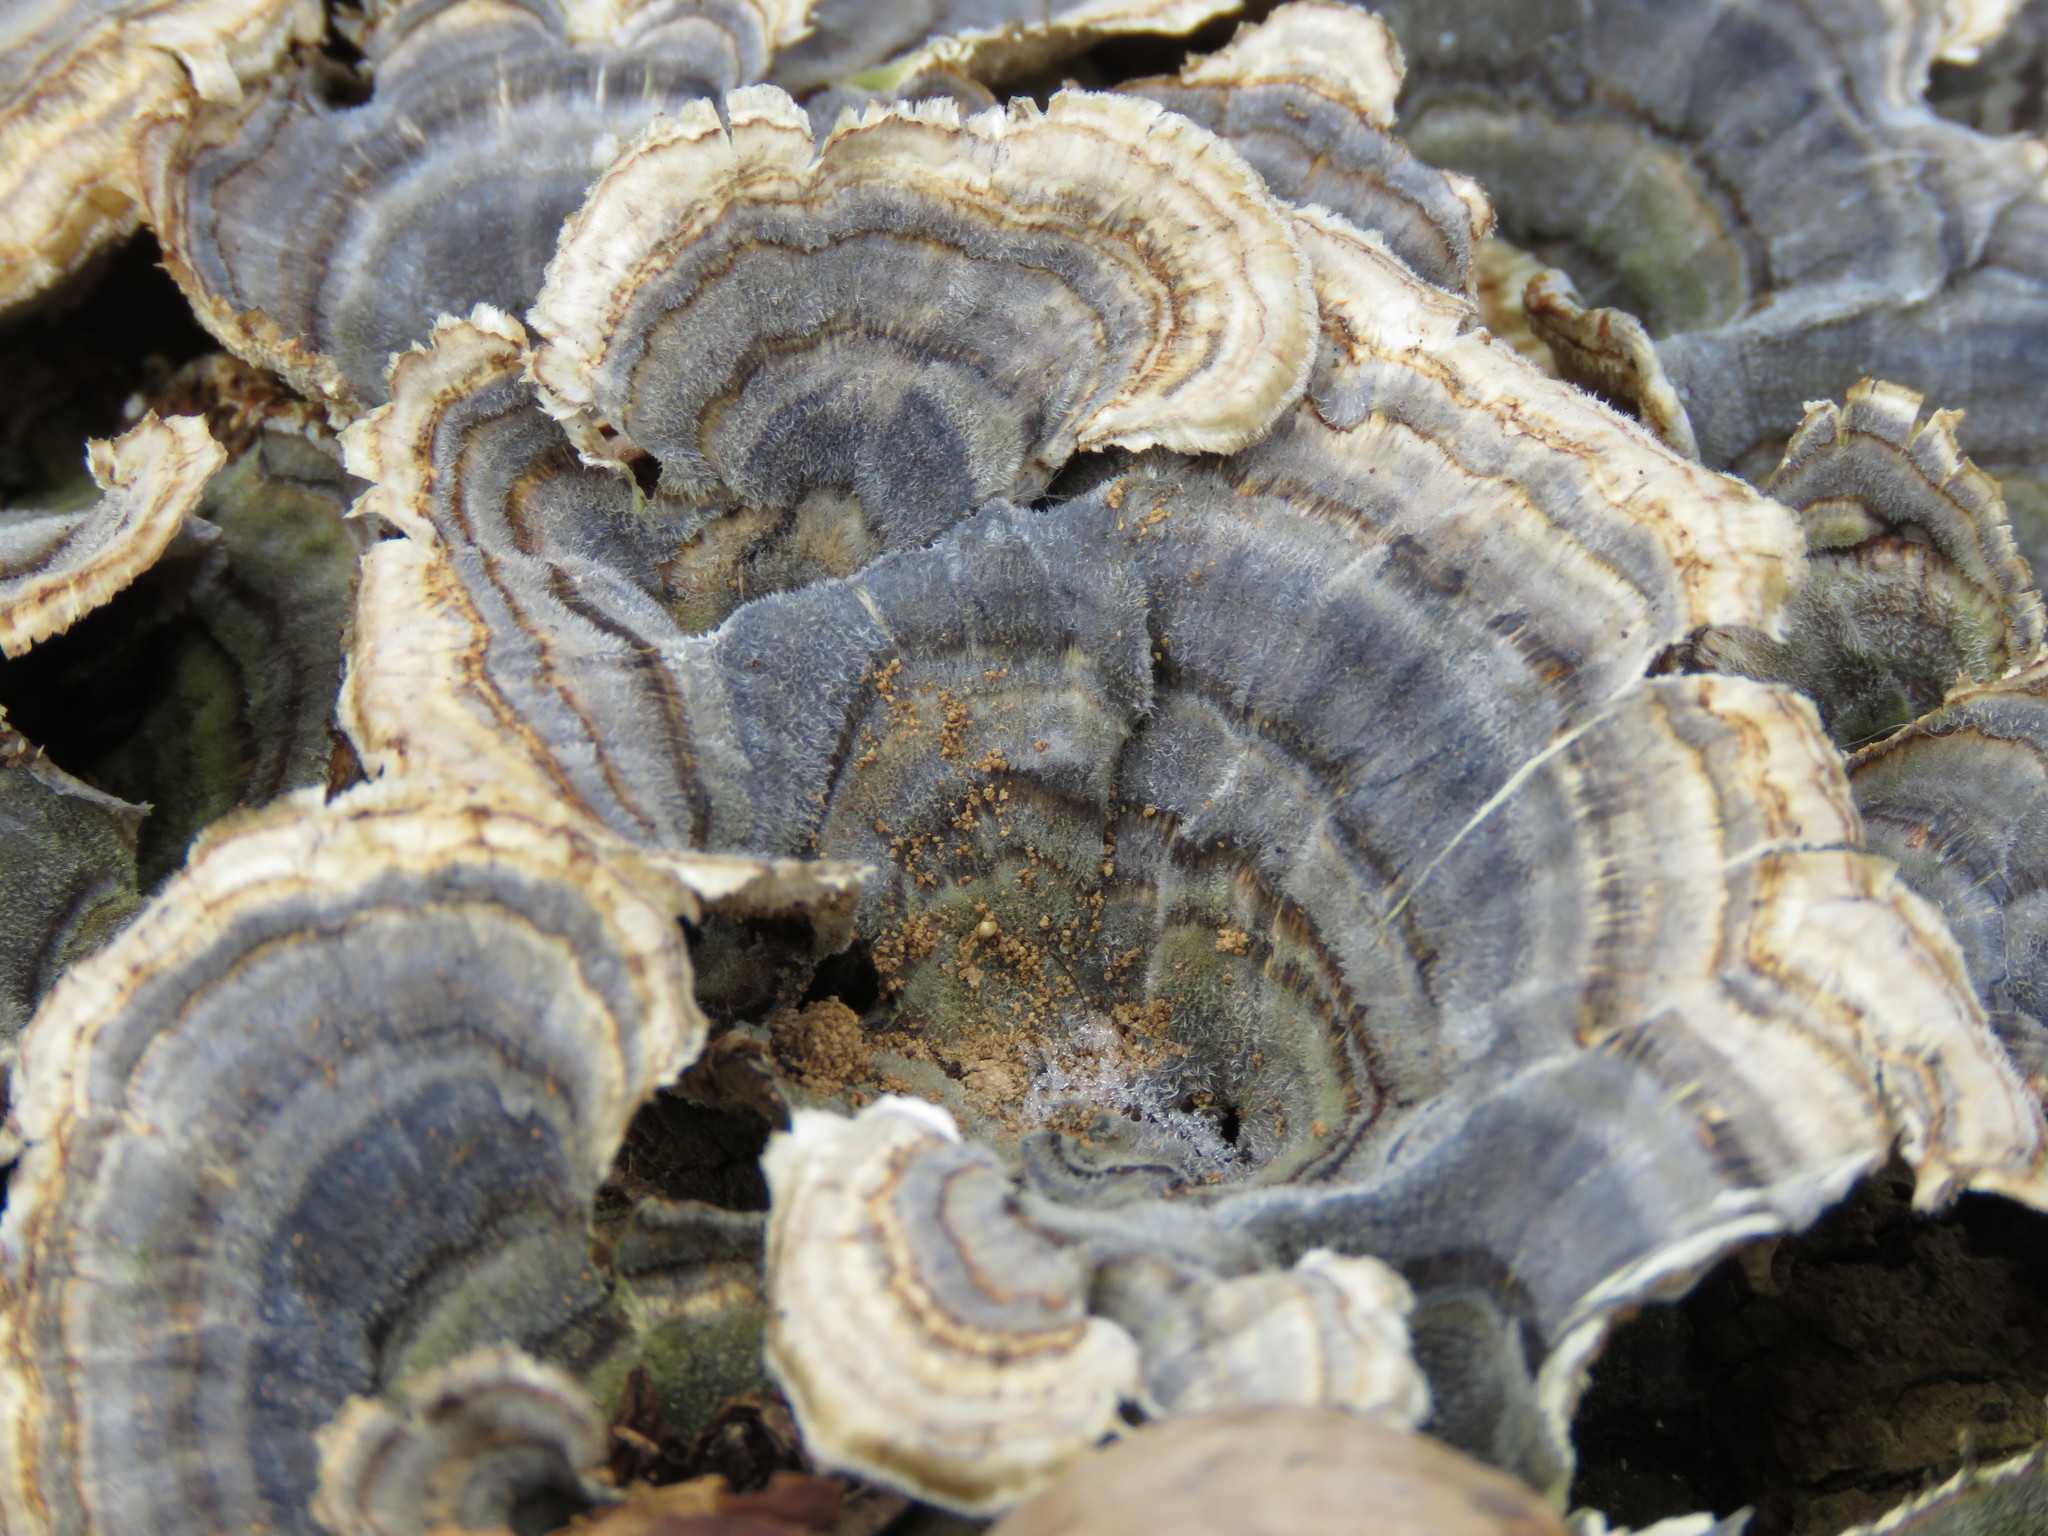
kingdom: Fungi
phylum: Basidiomycota
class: Agaricomycetes
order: Polyporales
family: Polyporaceae
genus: Trametes
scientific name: Trametes versicolor
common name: Turkeytail
